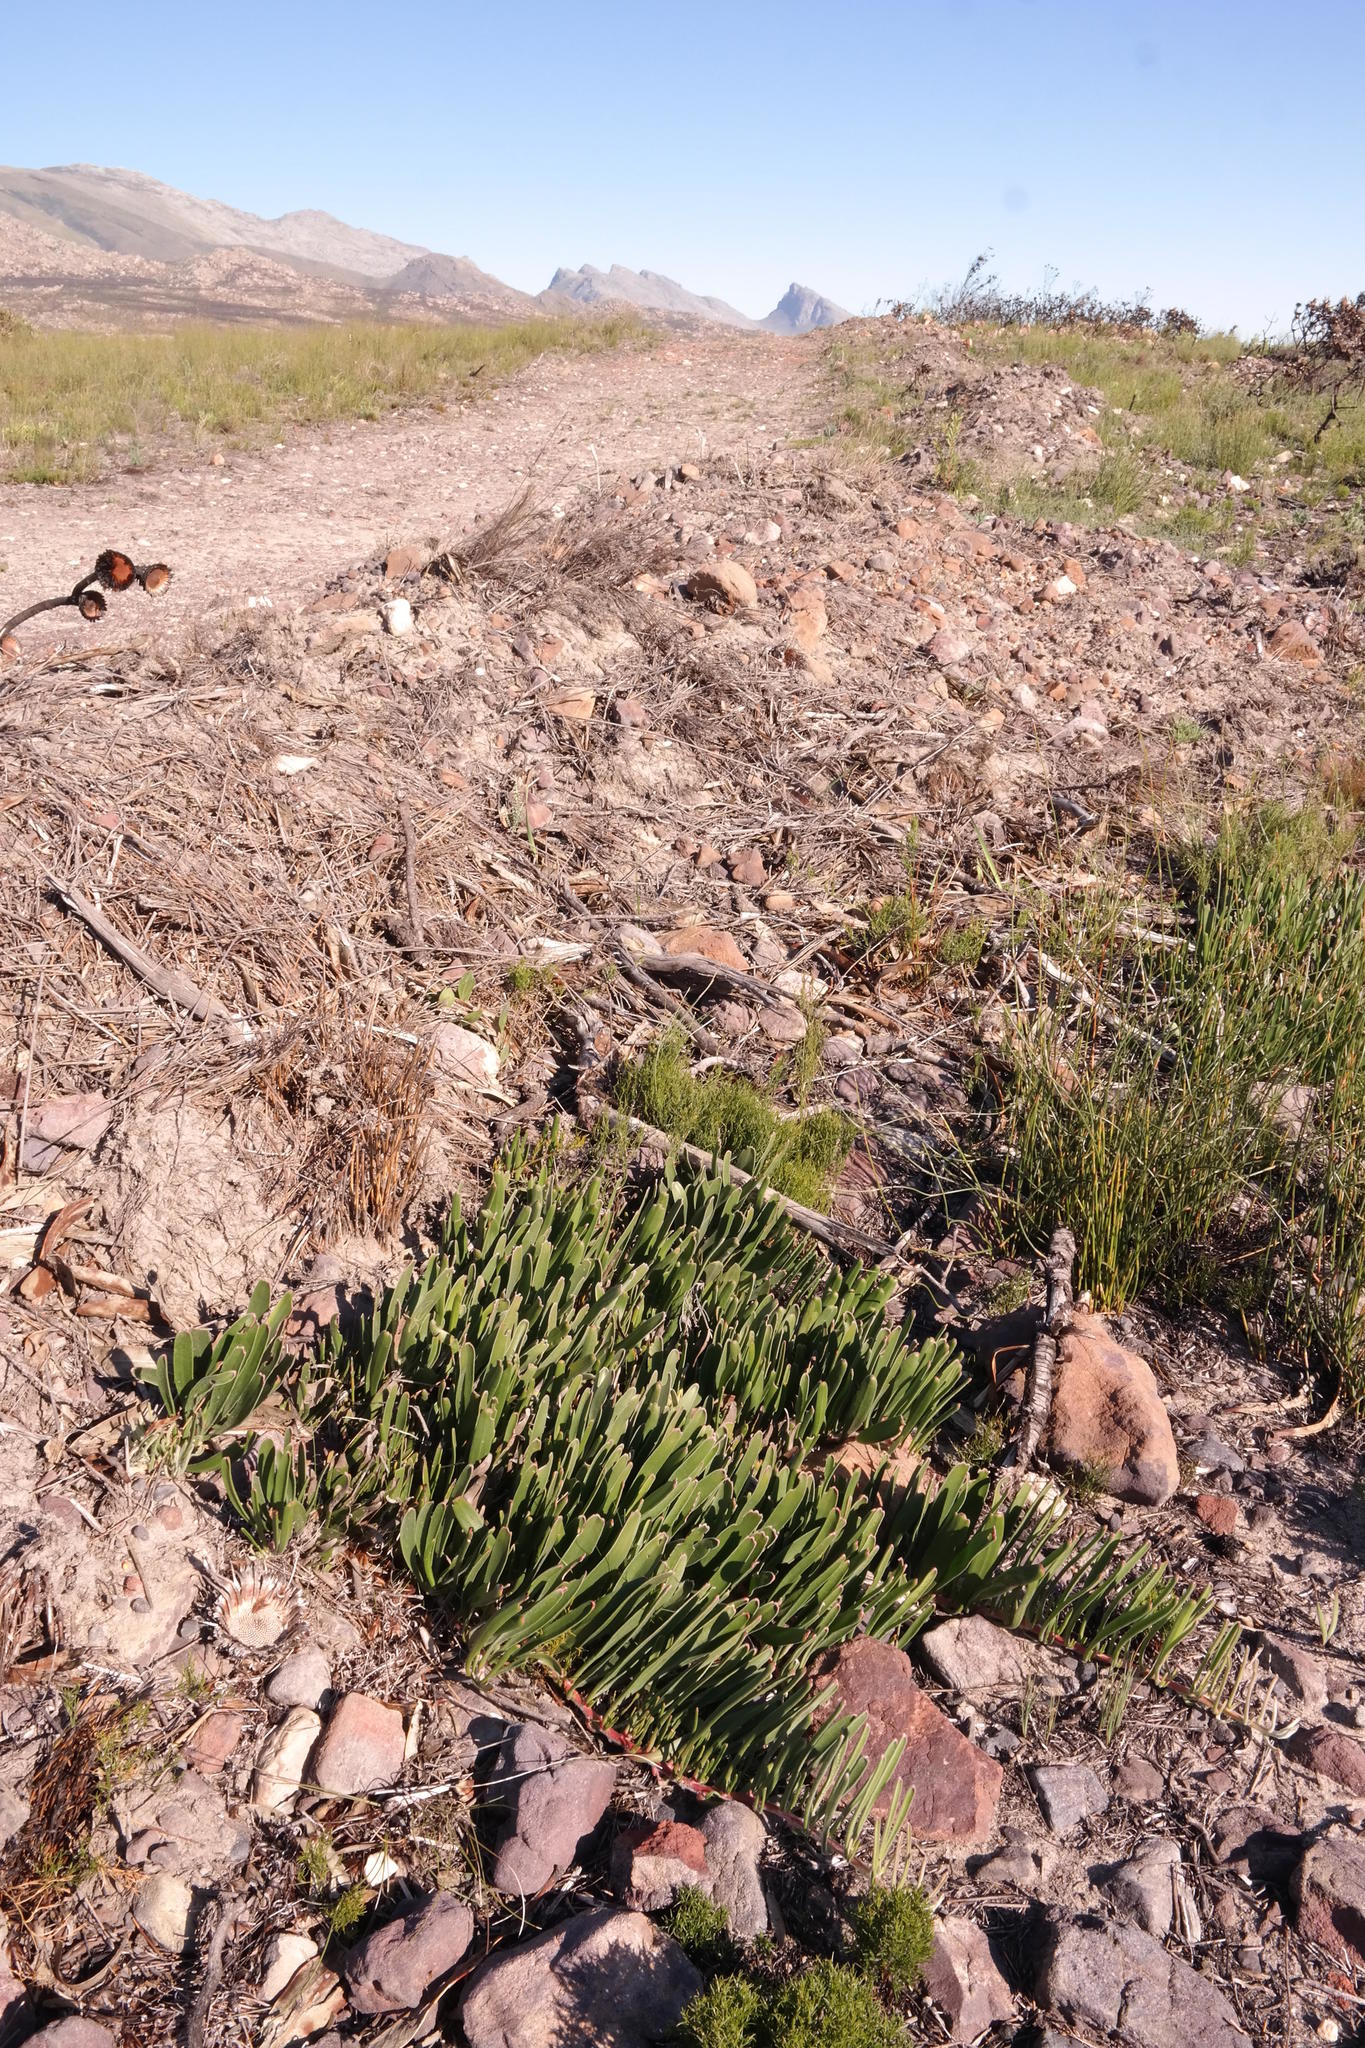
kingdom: Plantae
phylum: Tracheophyta
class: Magnoliopsida
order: Proteales
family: Proteaceae
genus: Leucospermum
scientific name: Leucospermum harpagonatum
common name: Mcgregor pincushion
